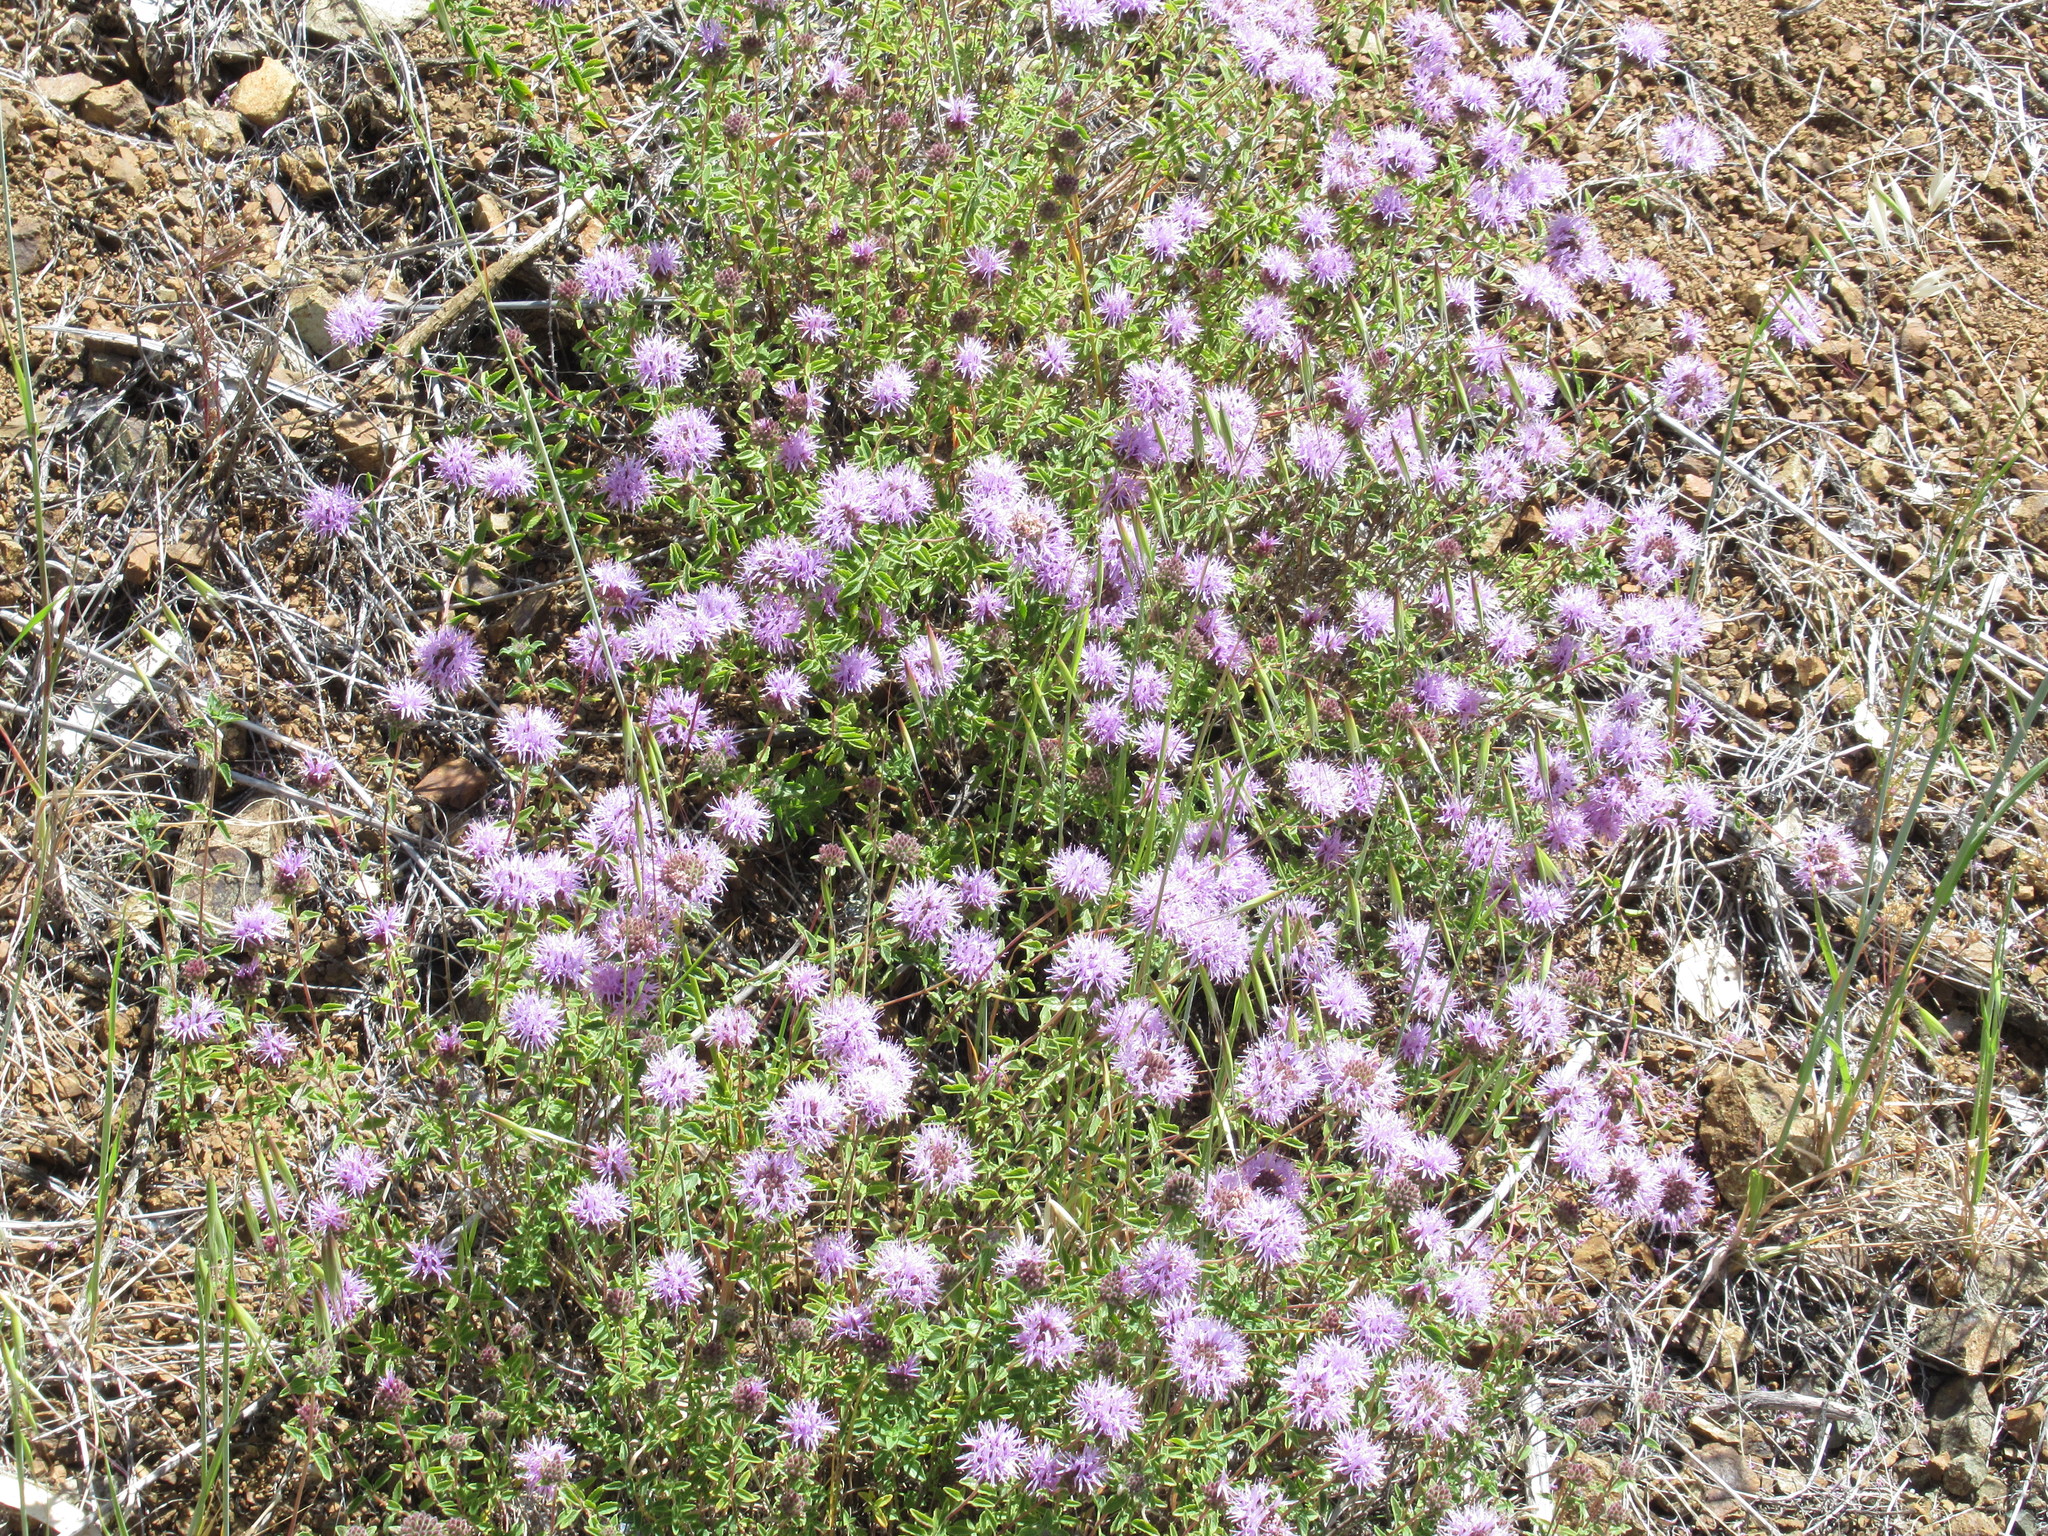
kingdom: Plantae
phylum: Tracheophyta
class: Magnoliopsida
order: Lamiales
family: Lamiaceae
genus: Monardella
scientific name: Monardella odoratissima
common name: Pacific monardella
